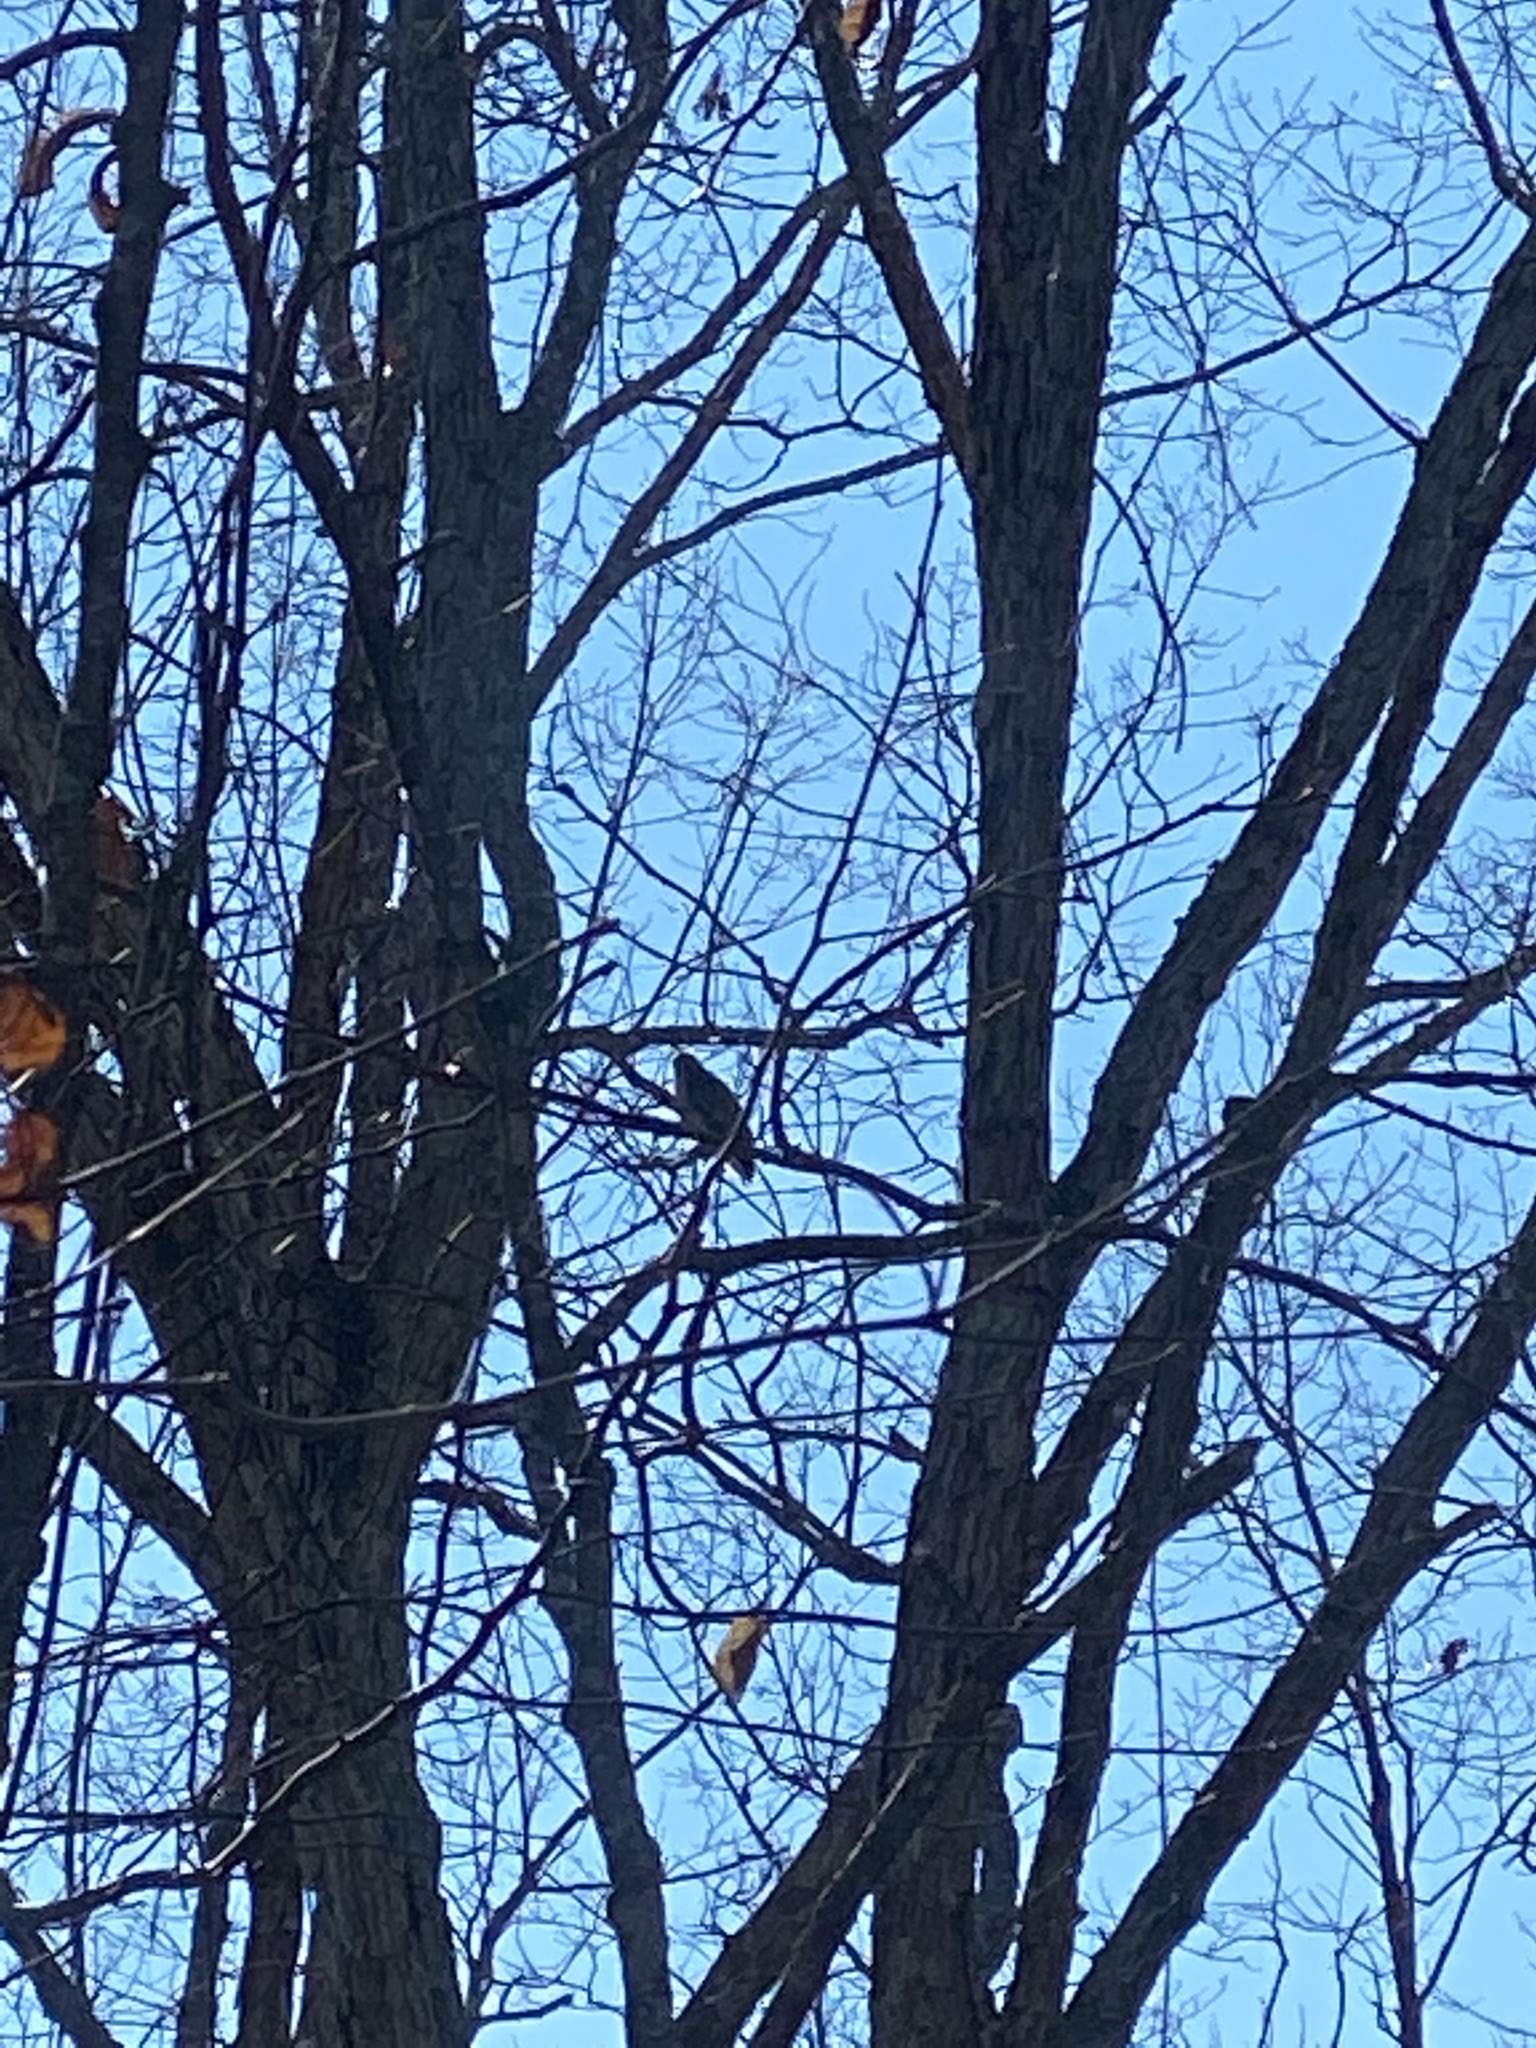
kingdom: Animalia
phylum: Chordata
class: Aves
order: Accipitriformes
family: Accipitridae
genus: Buteo
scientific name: Buteo jamaicensis
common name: Red-tailed hawk
